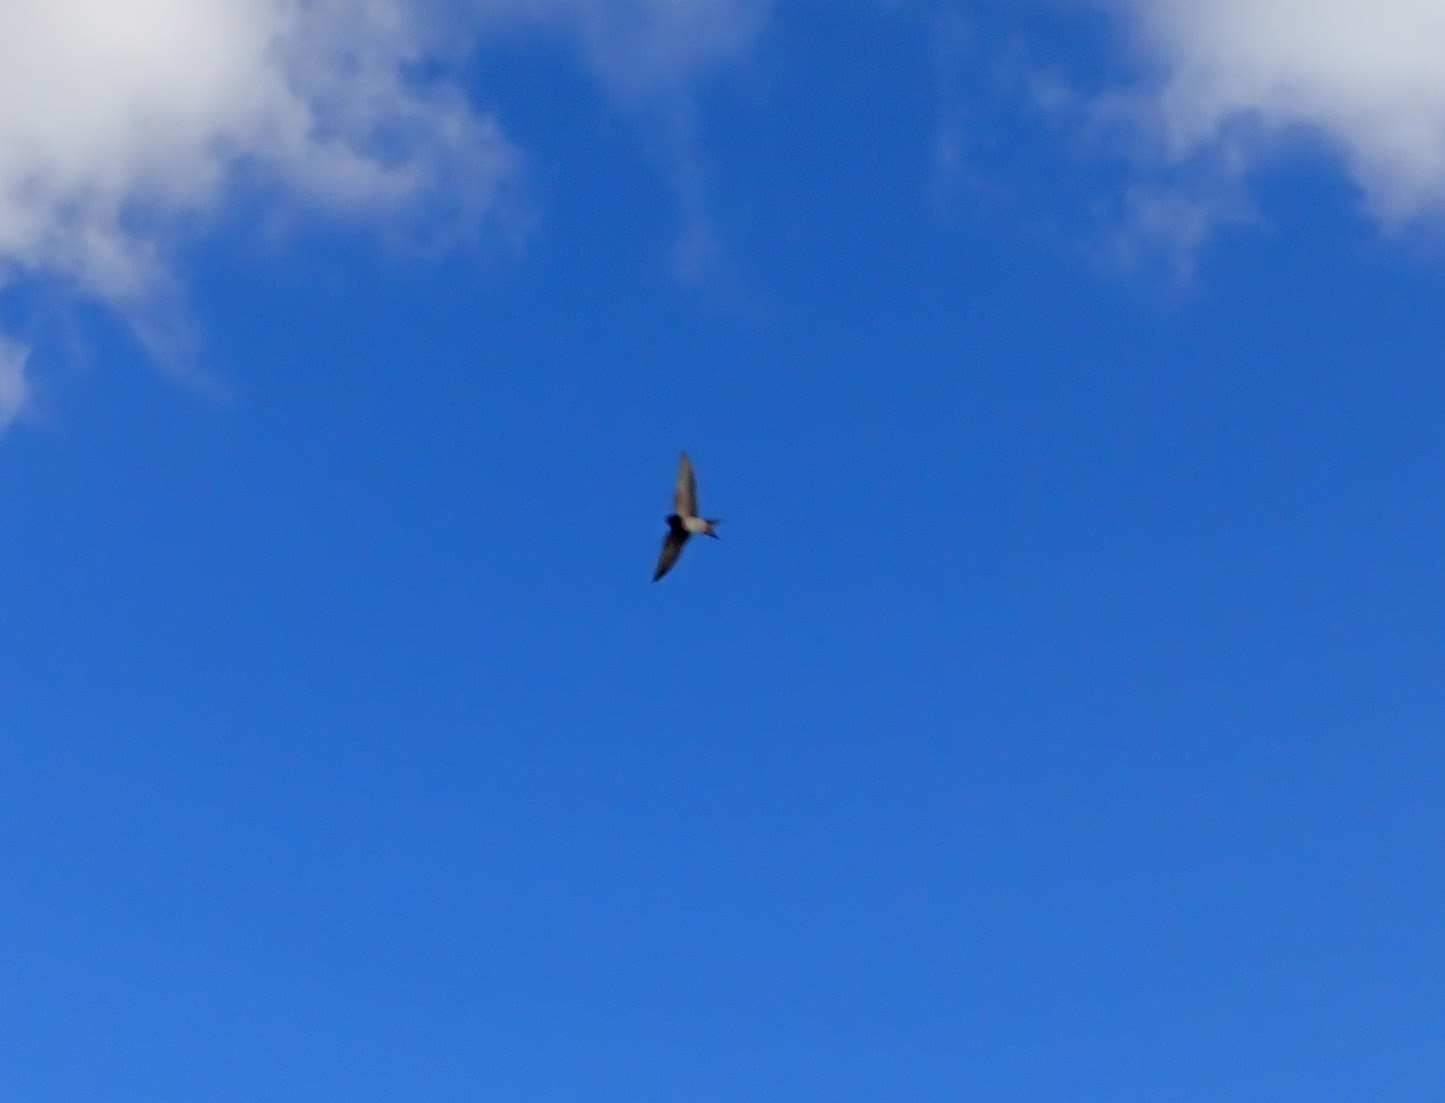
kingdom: Animalia
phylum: Chordata
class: Aves
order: Passeriformes
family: Hirundinidae
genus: Hirundo
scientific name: Hirundo neoxena
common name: Welcome swallow
